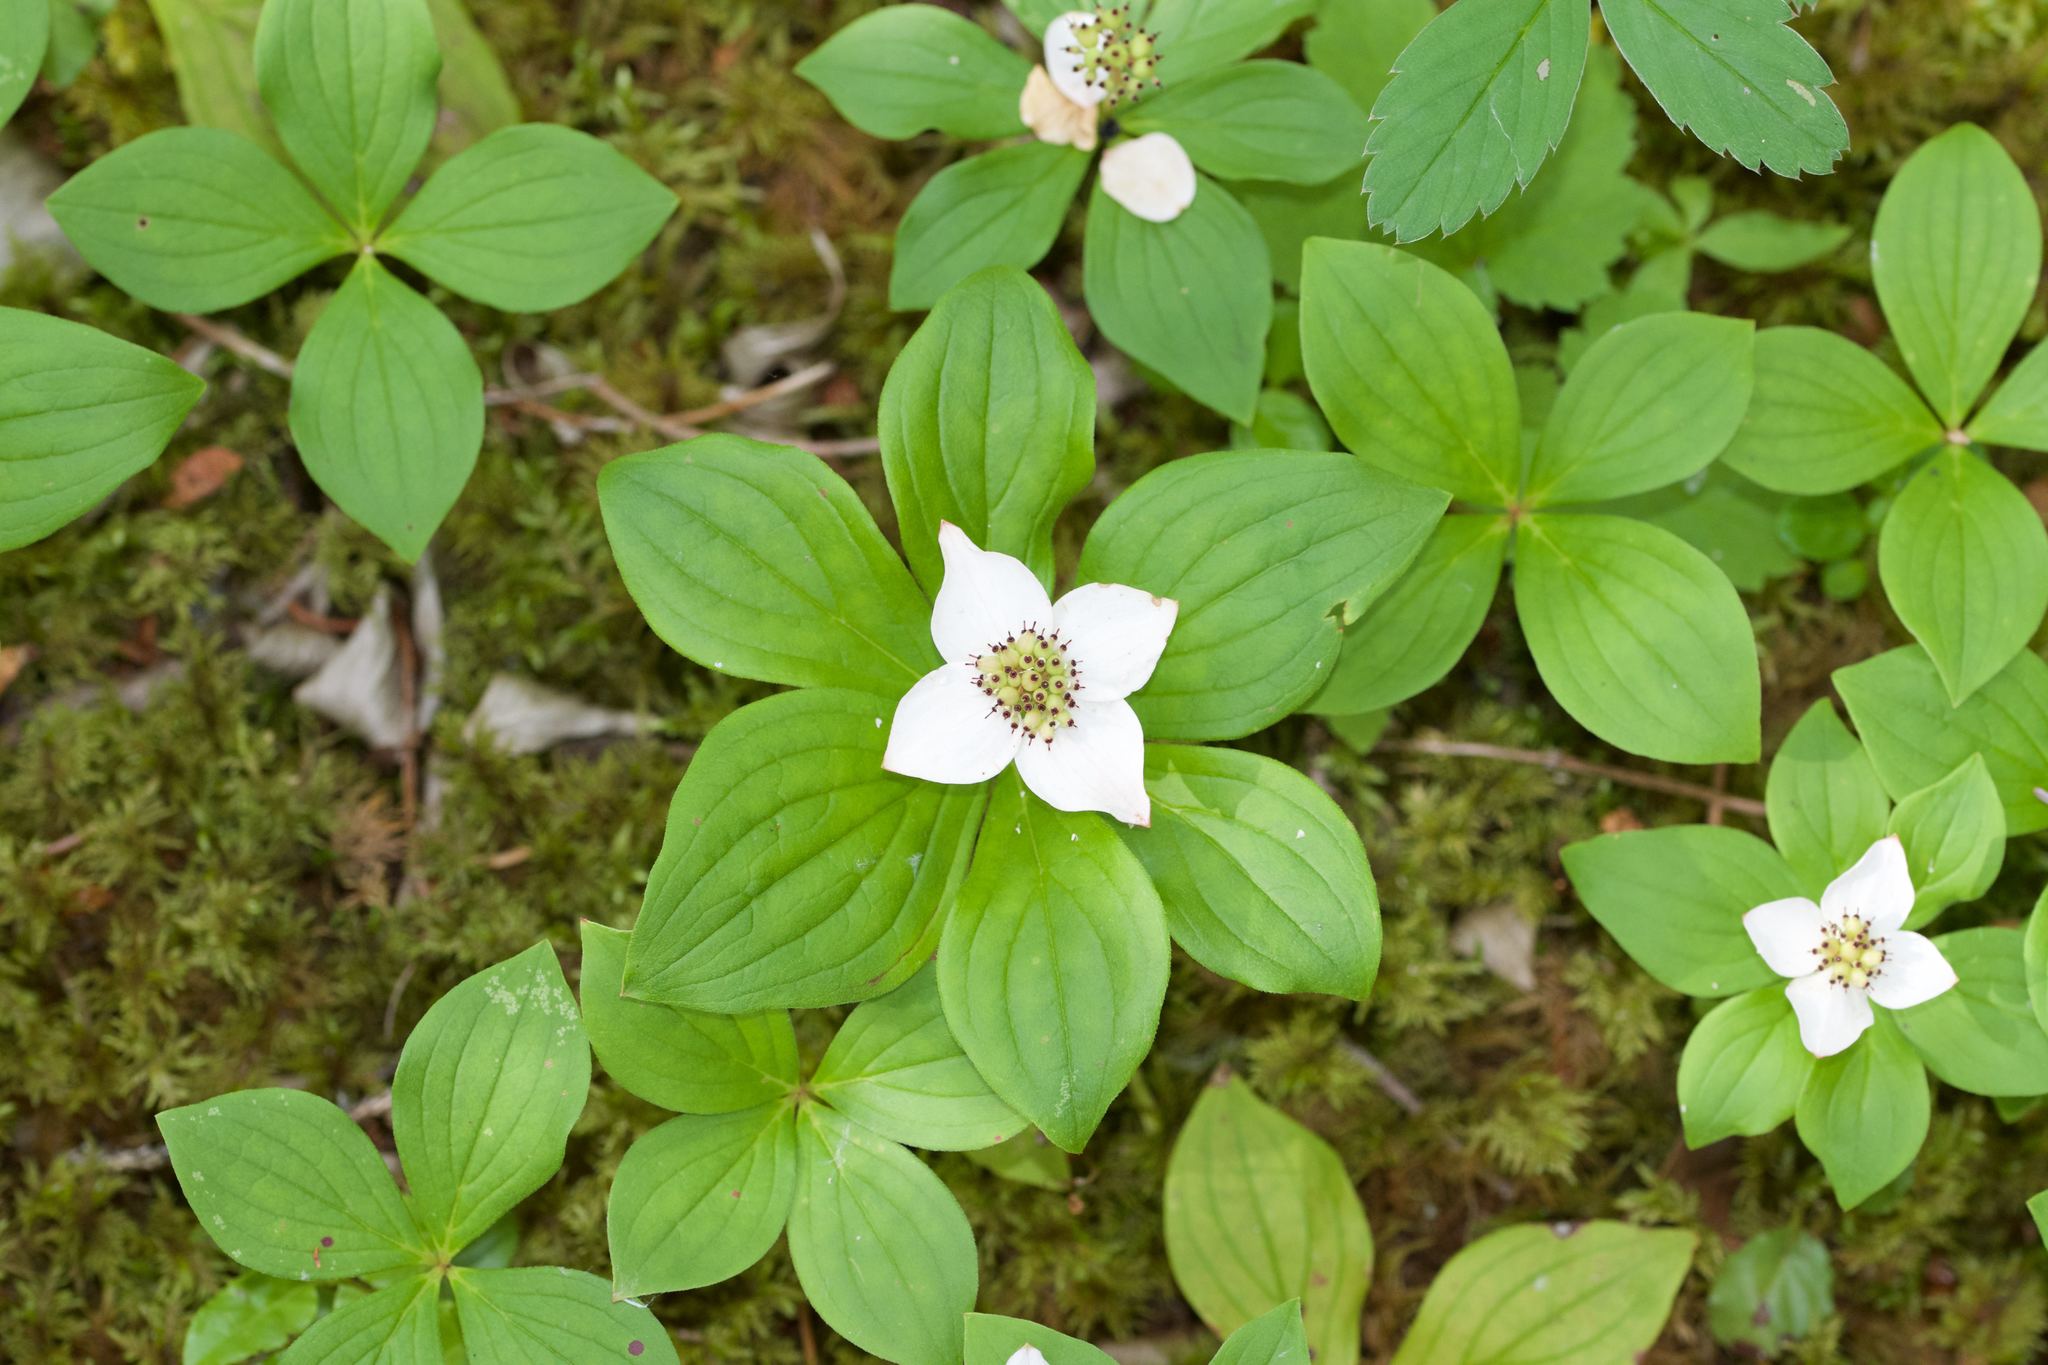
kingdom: Plantae
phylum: Tracheophyta
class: Magnoliopsida
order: Cornales
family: Cornaceae
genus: Cornus
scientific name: Cornus canadensis
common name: Creeping dogwood
